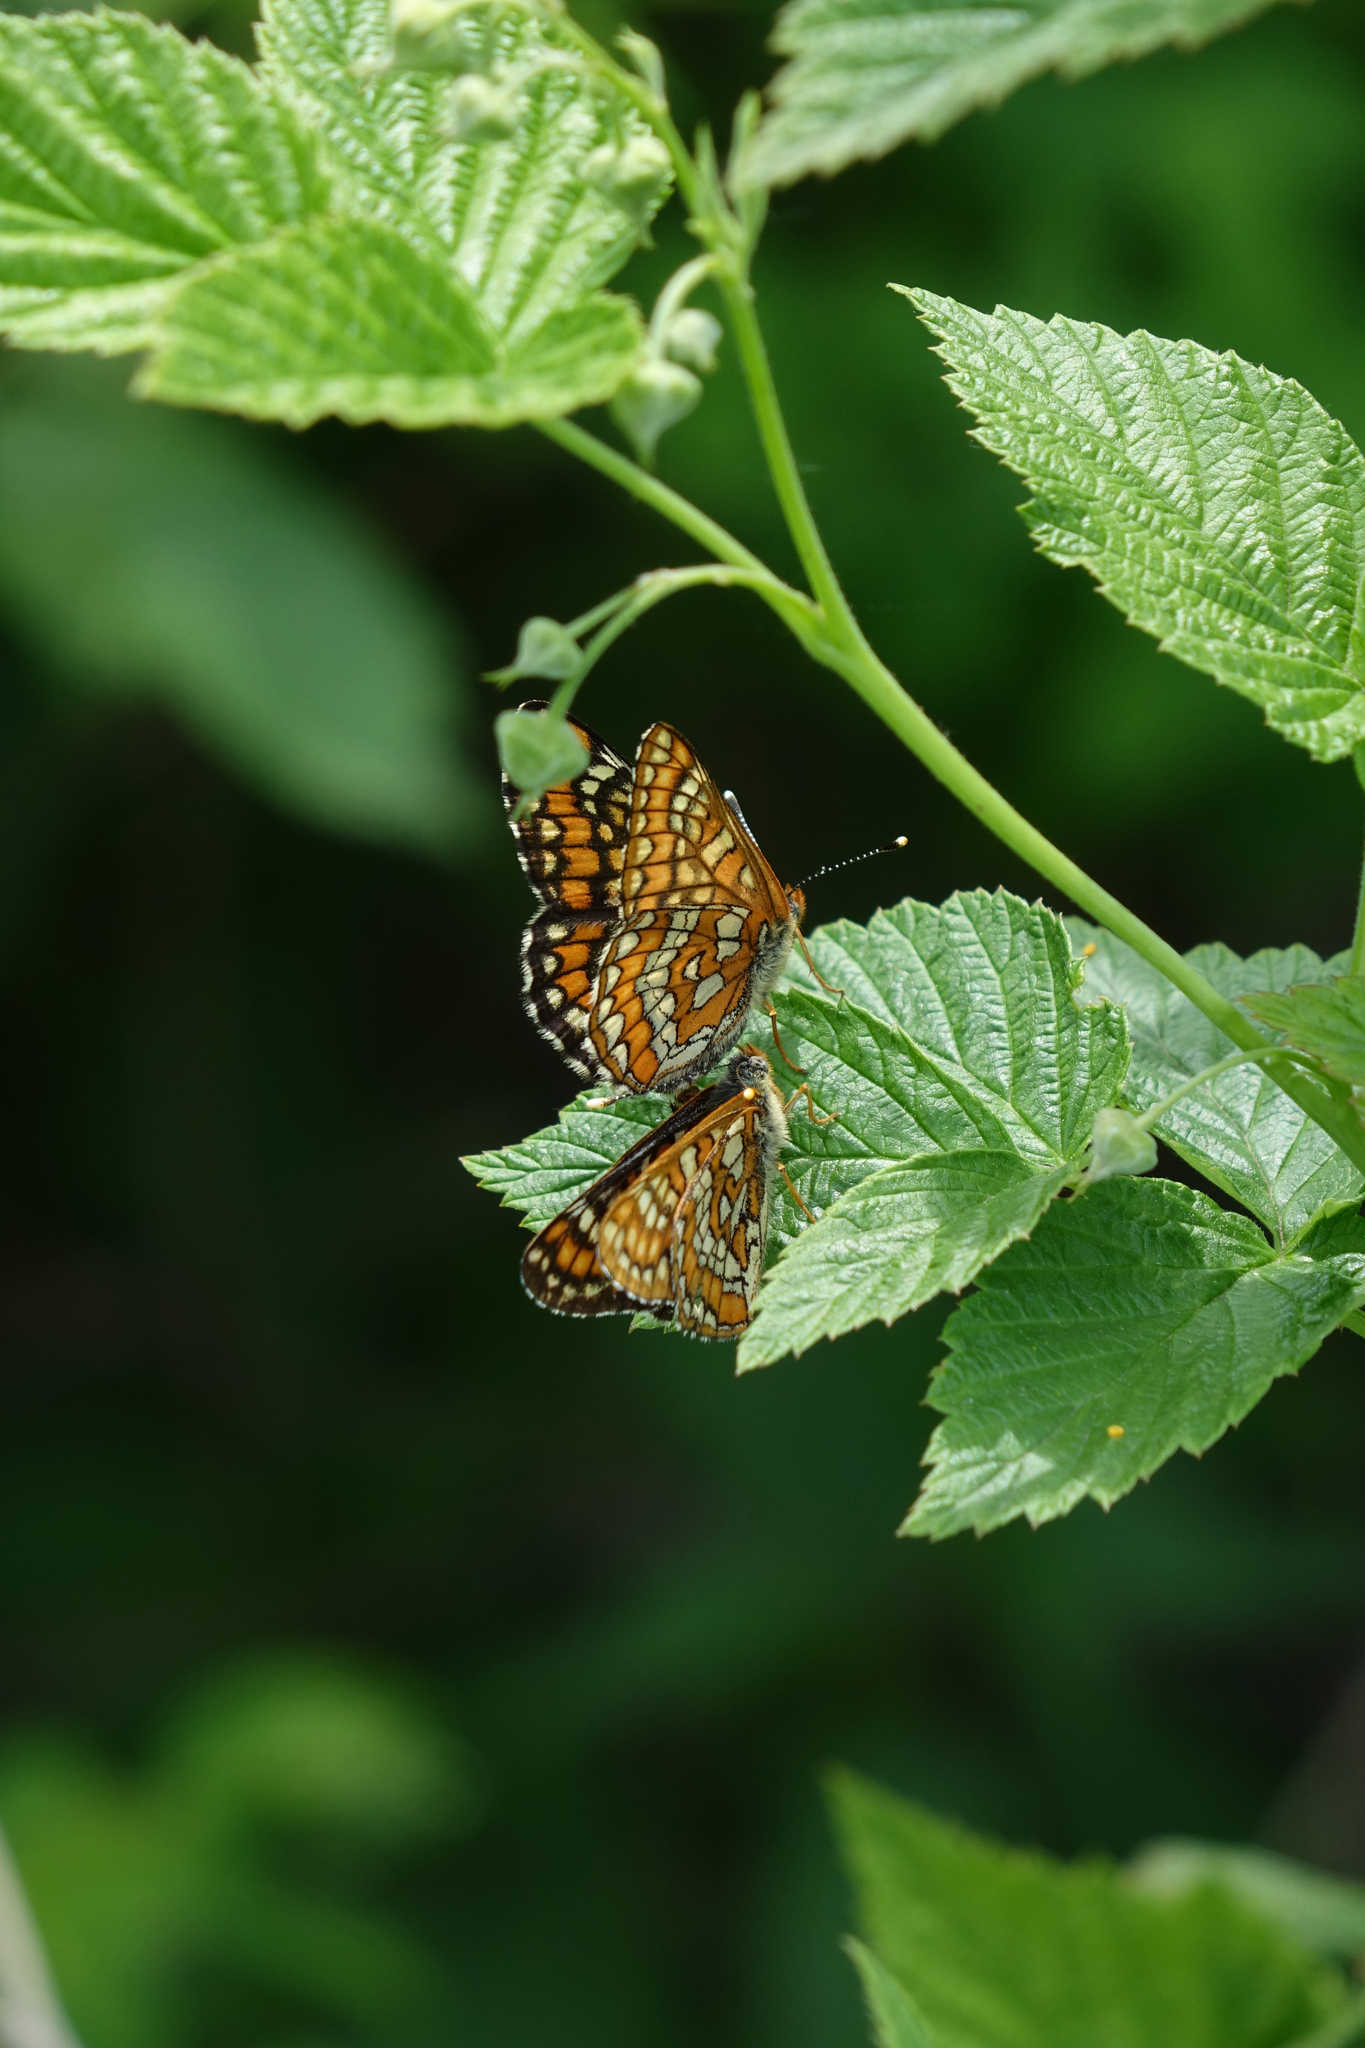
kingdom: Animalia
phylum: Arthropoda
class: Insecta
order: Lepidoptera
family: Nymphalidae
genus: Euphydryas
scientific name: Euphydryas maturna
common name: Scarce fritillary
